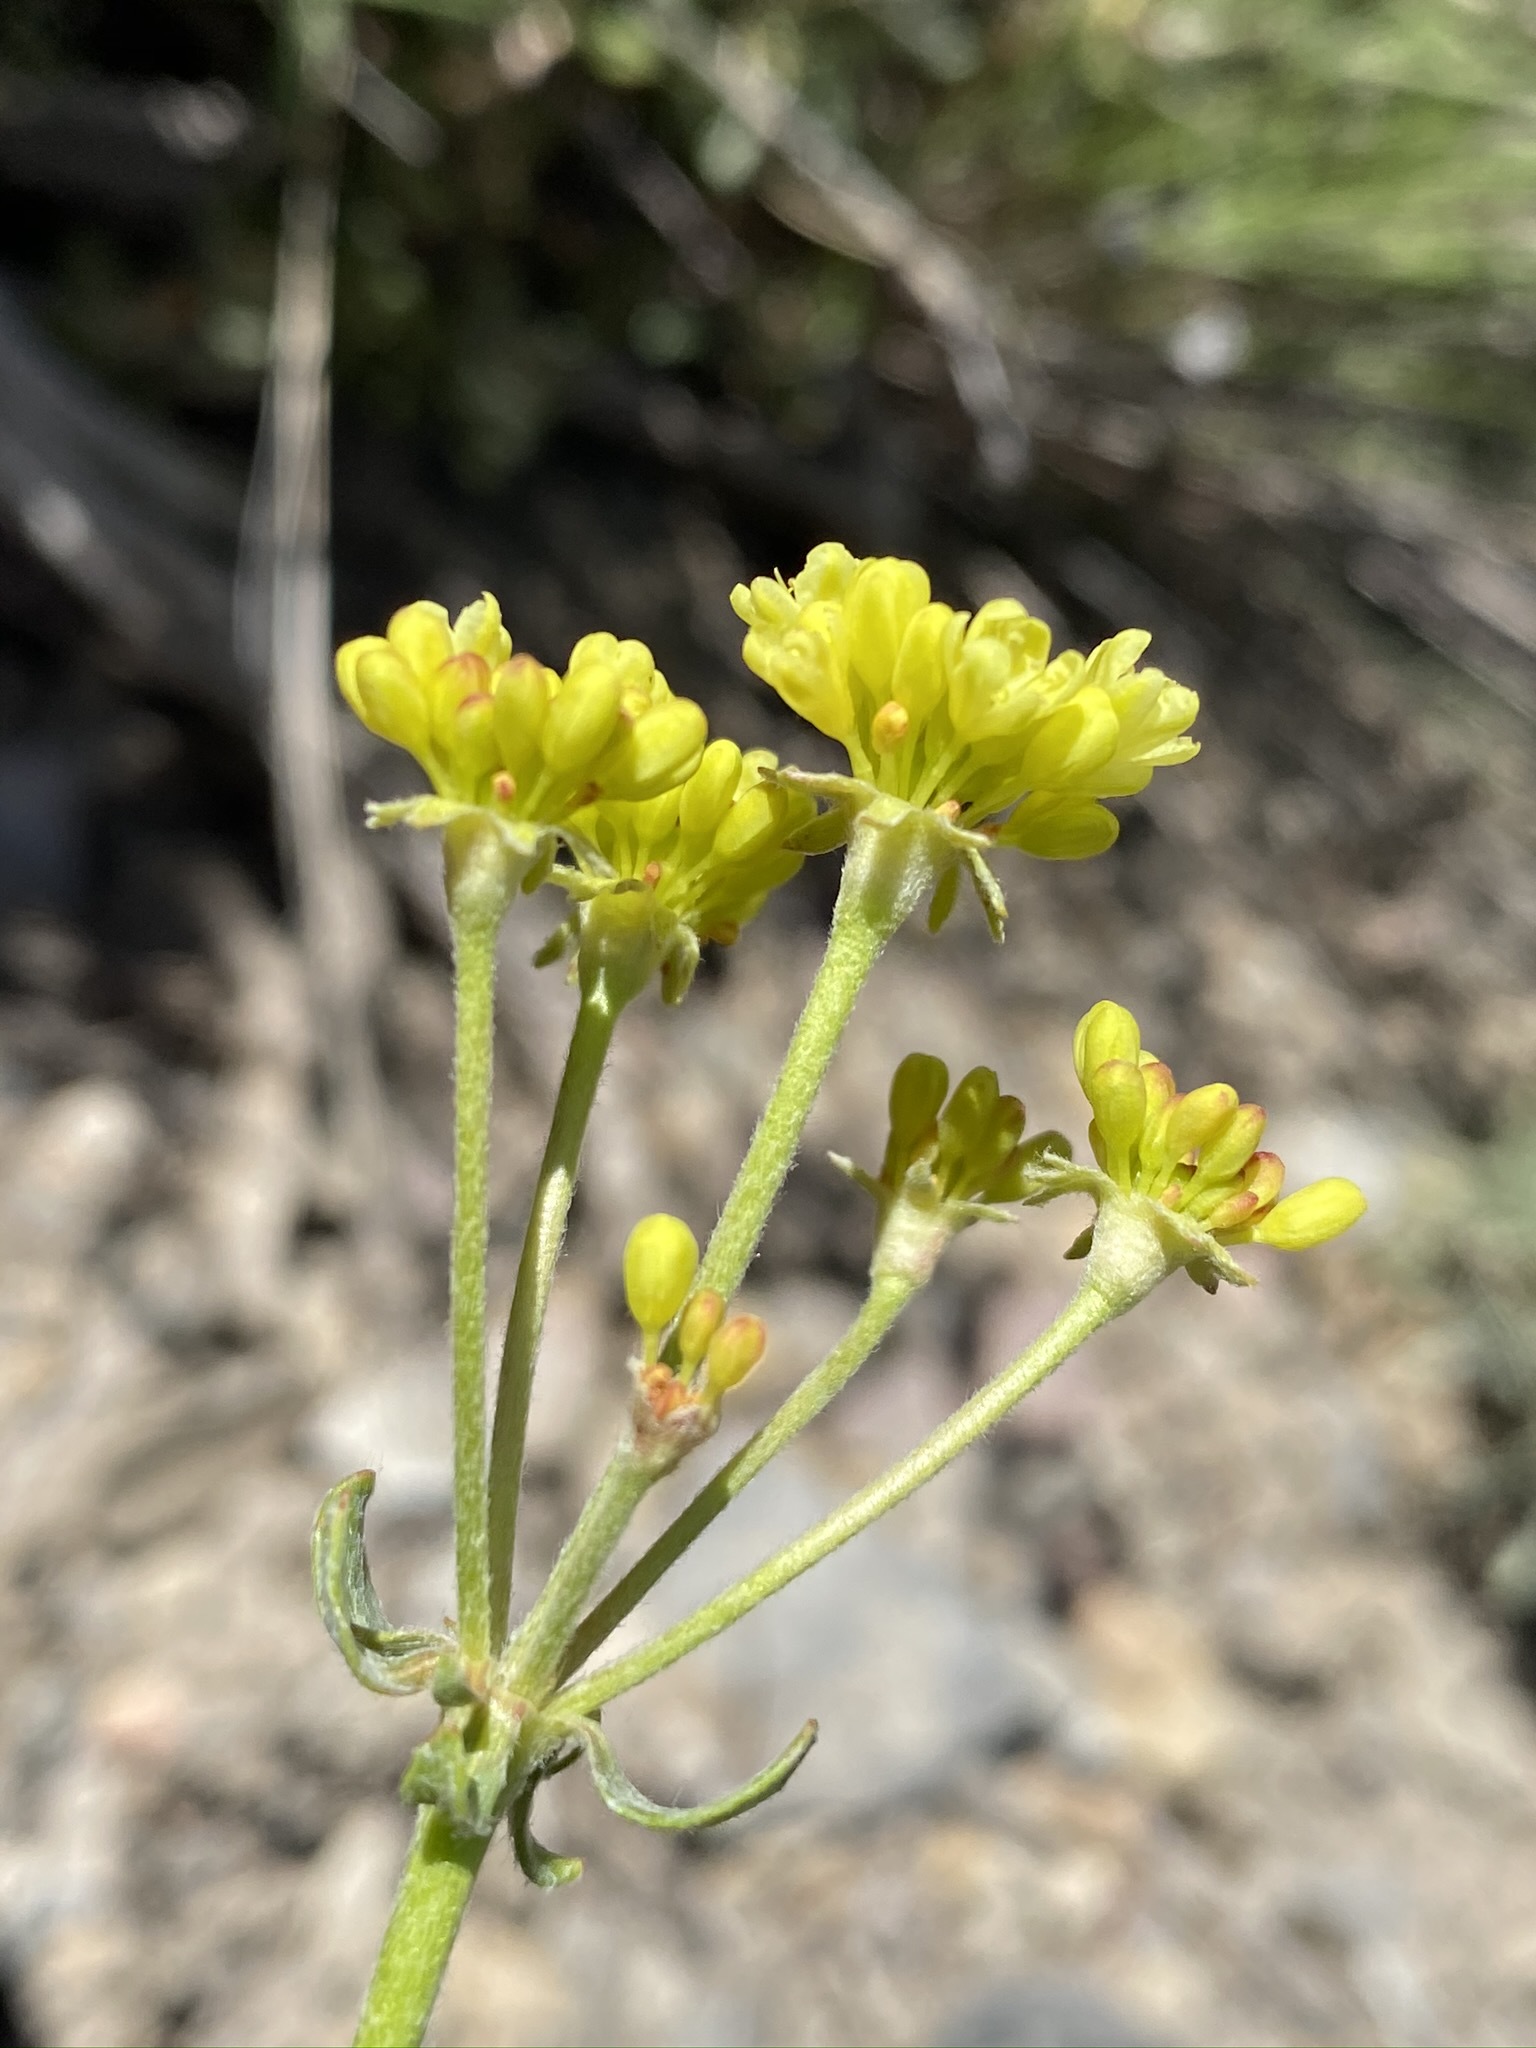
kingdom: Plantae
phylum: Tracheophyta
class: Magnoliopsida
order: Caryophyllales
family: Polygonaceae
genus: Eriogonum
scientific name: Eriogonum umbellatum
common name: Sulfur-buckwheat
